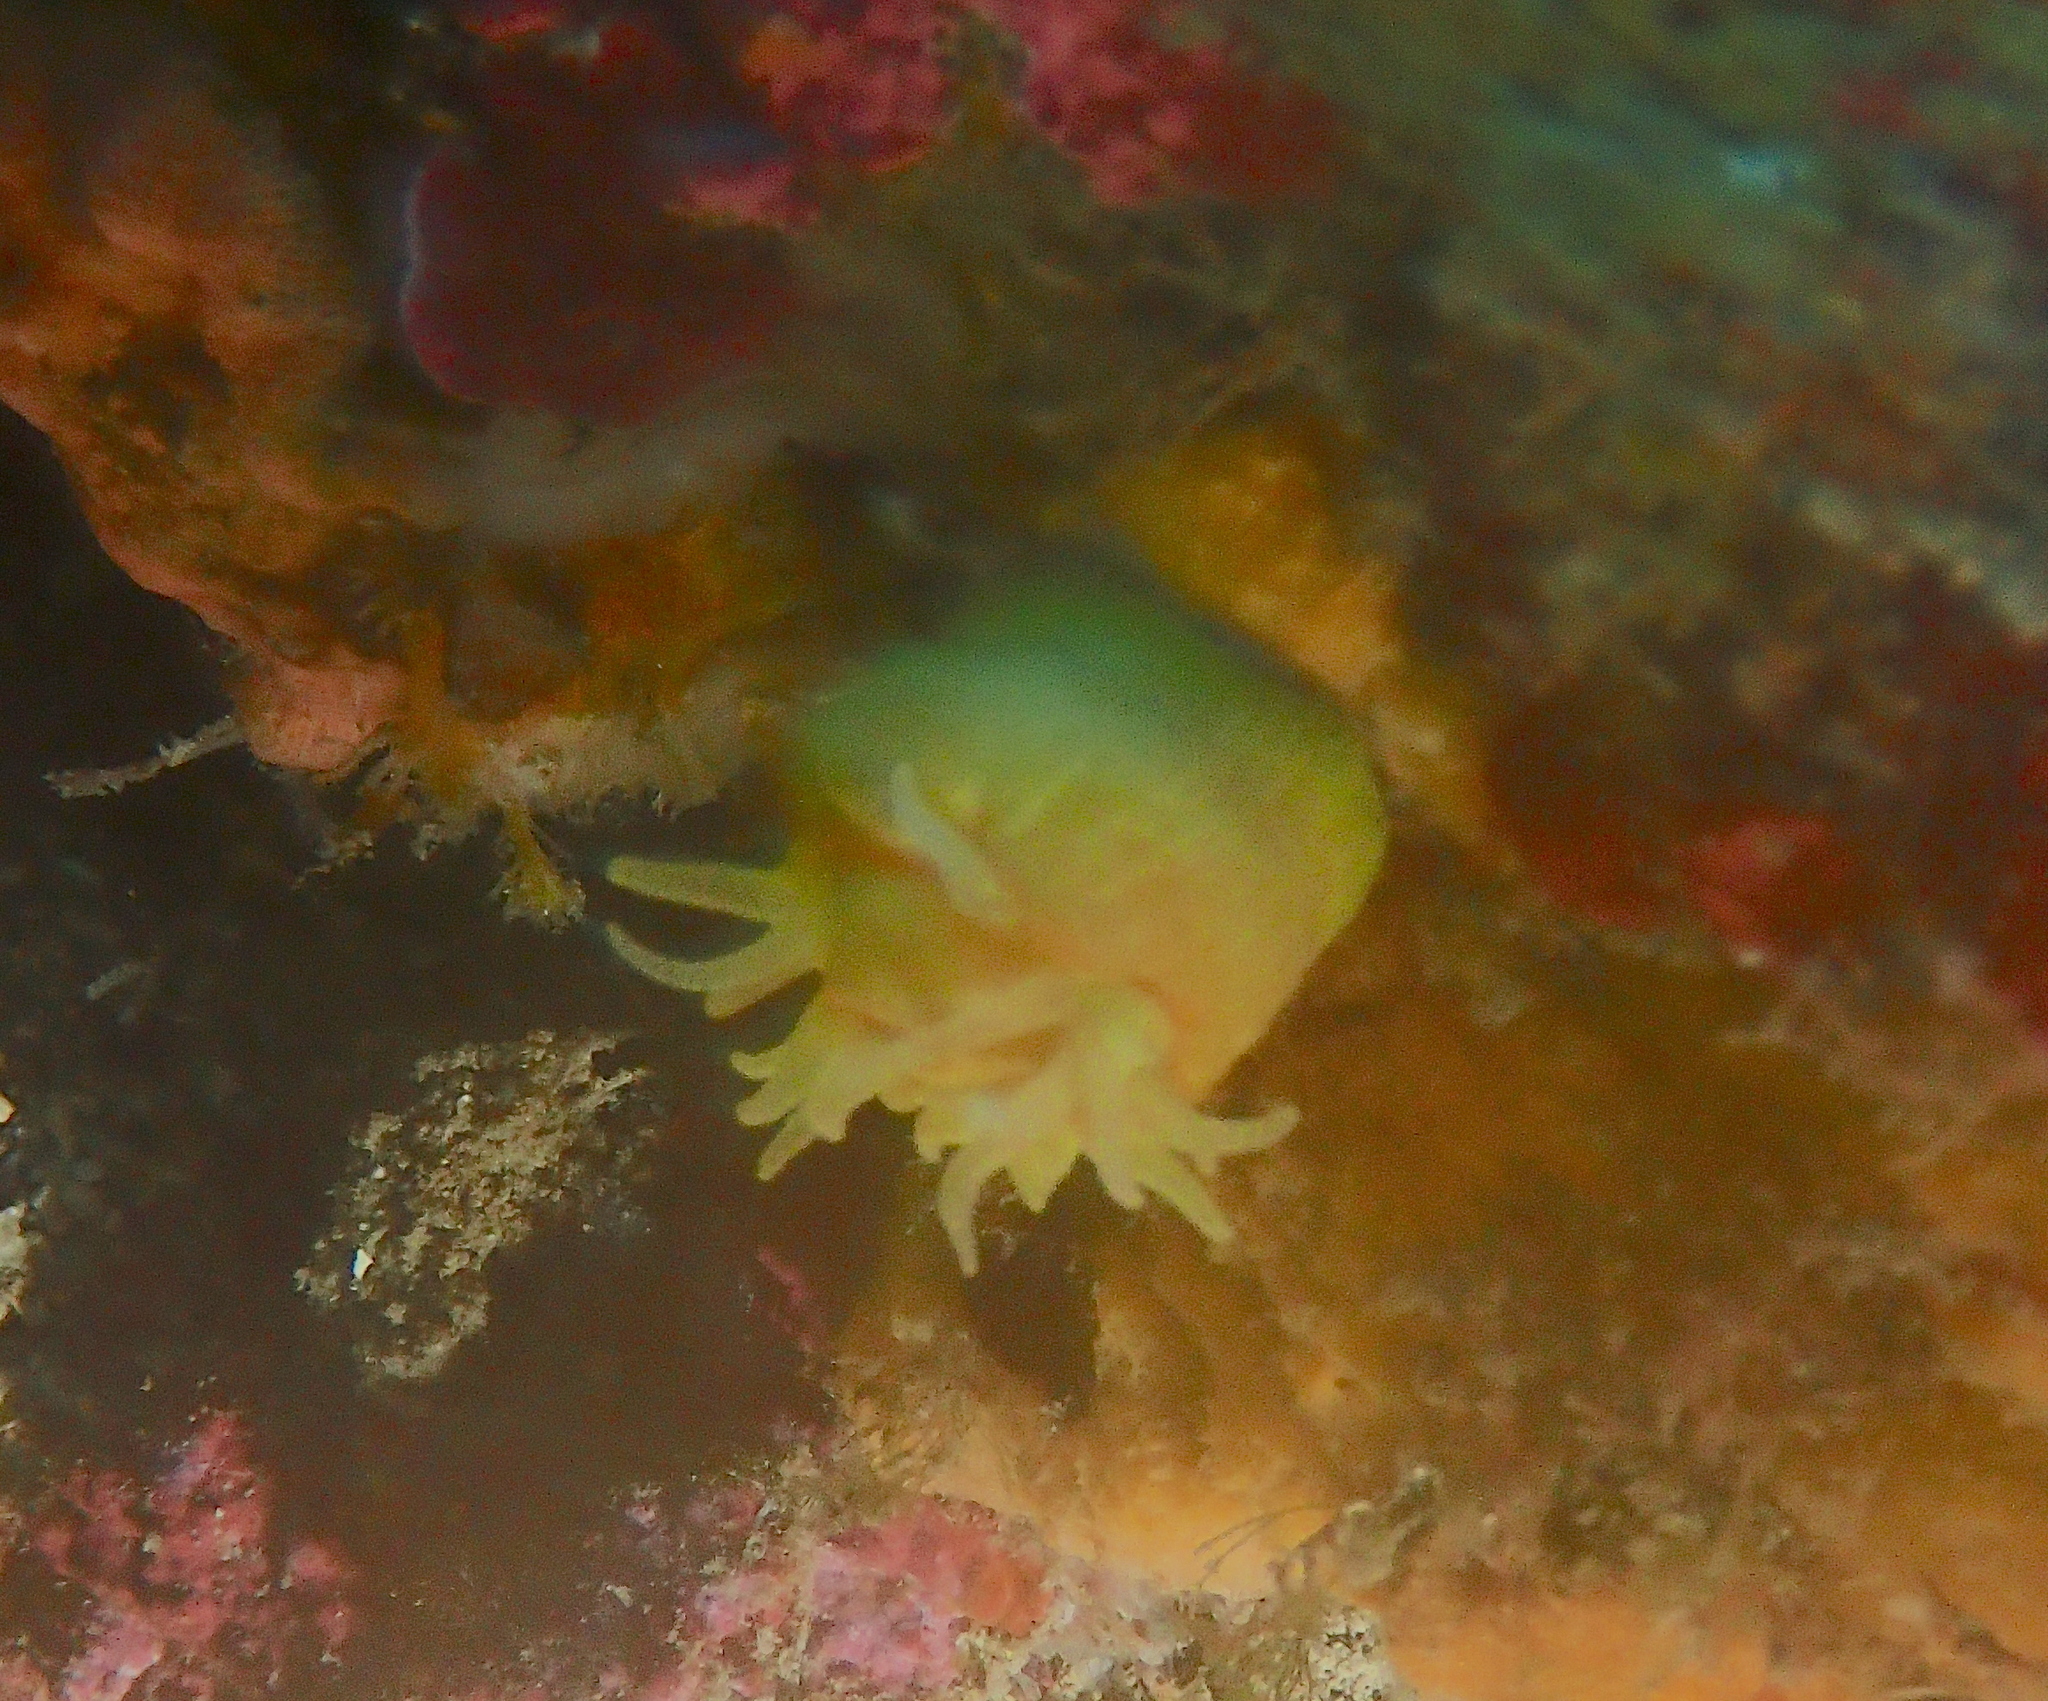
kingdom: Animalia
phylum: Cnidaria
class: Anthozoa
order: Scleractinia
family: Dendrophylliidae
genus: Leptopsammia
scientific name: Leptopsammia pruvoti
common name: Sunset cup coral
